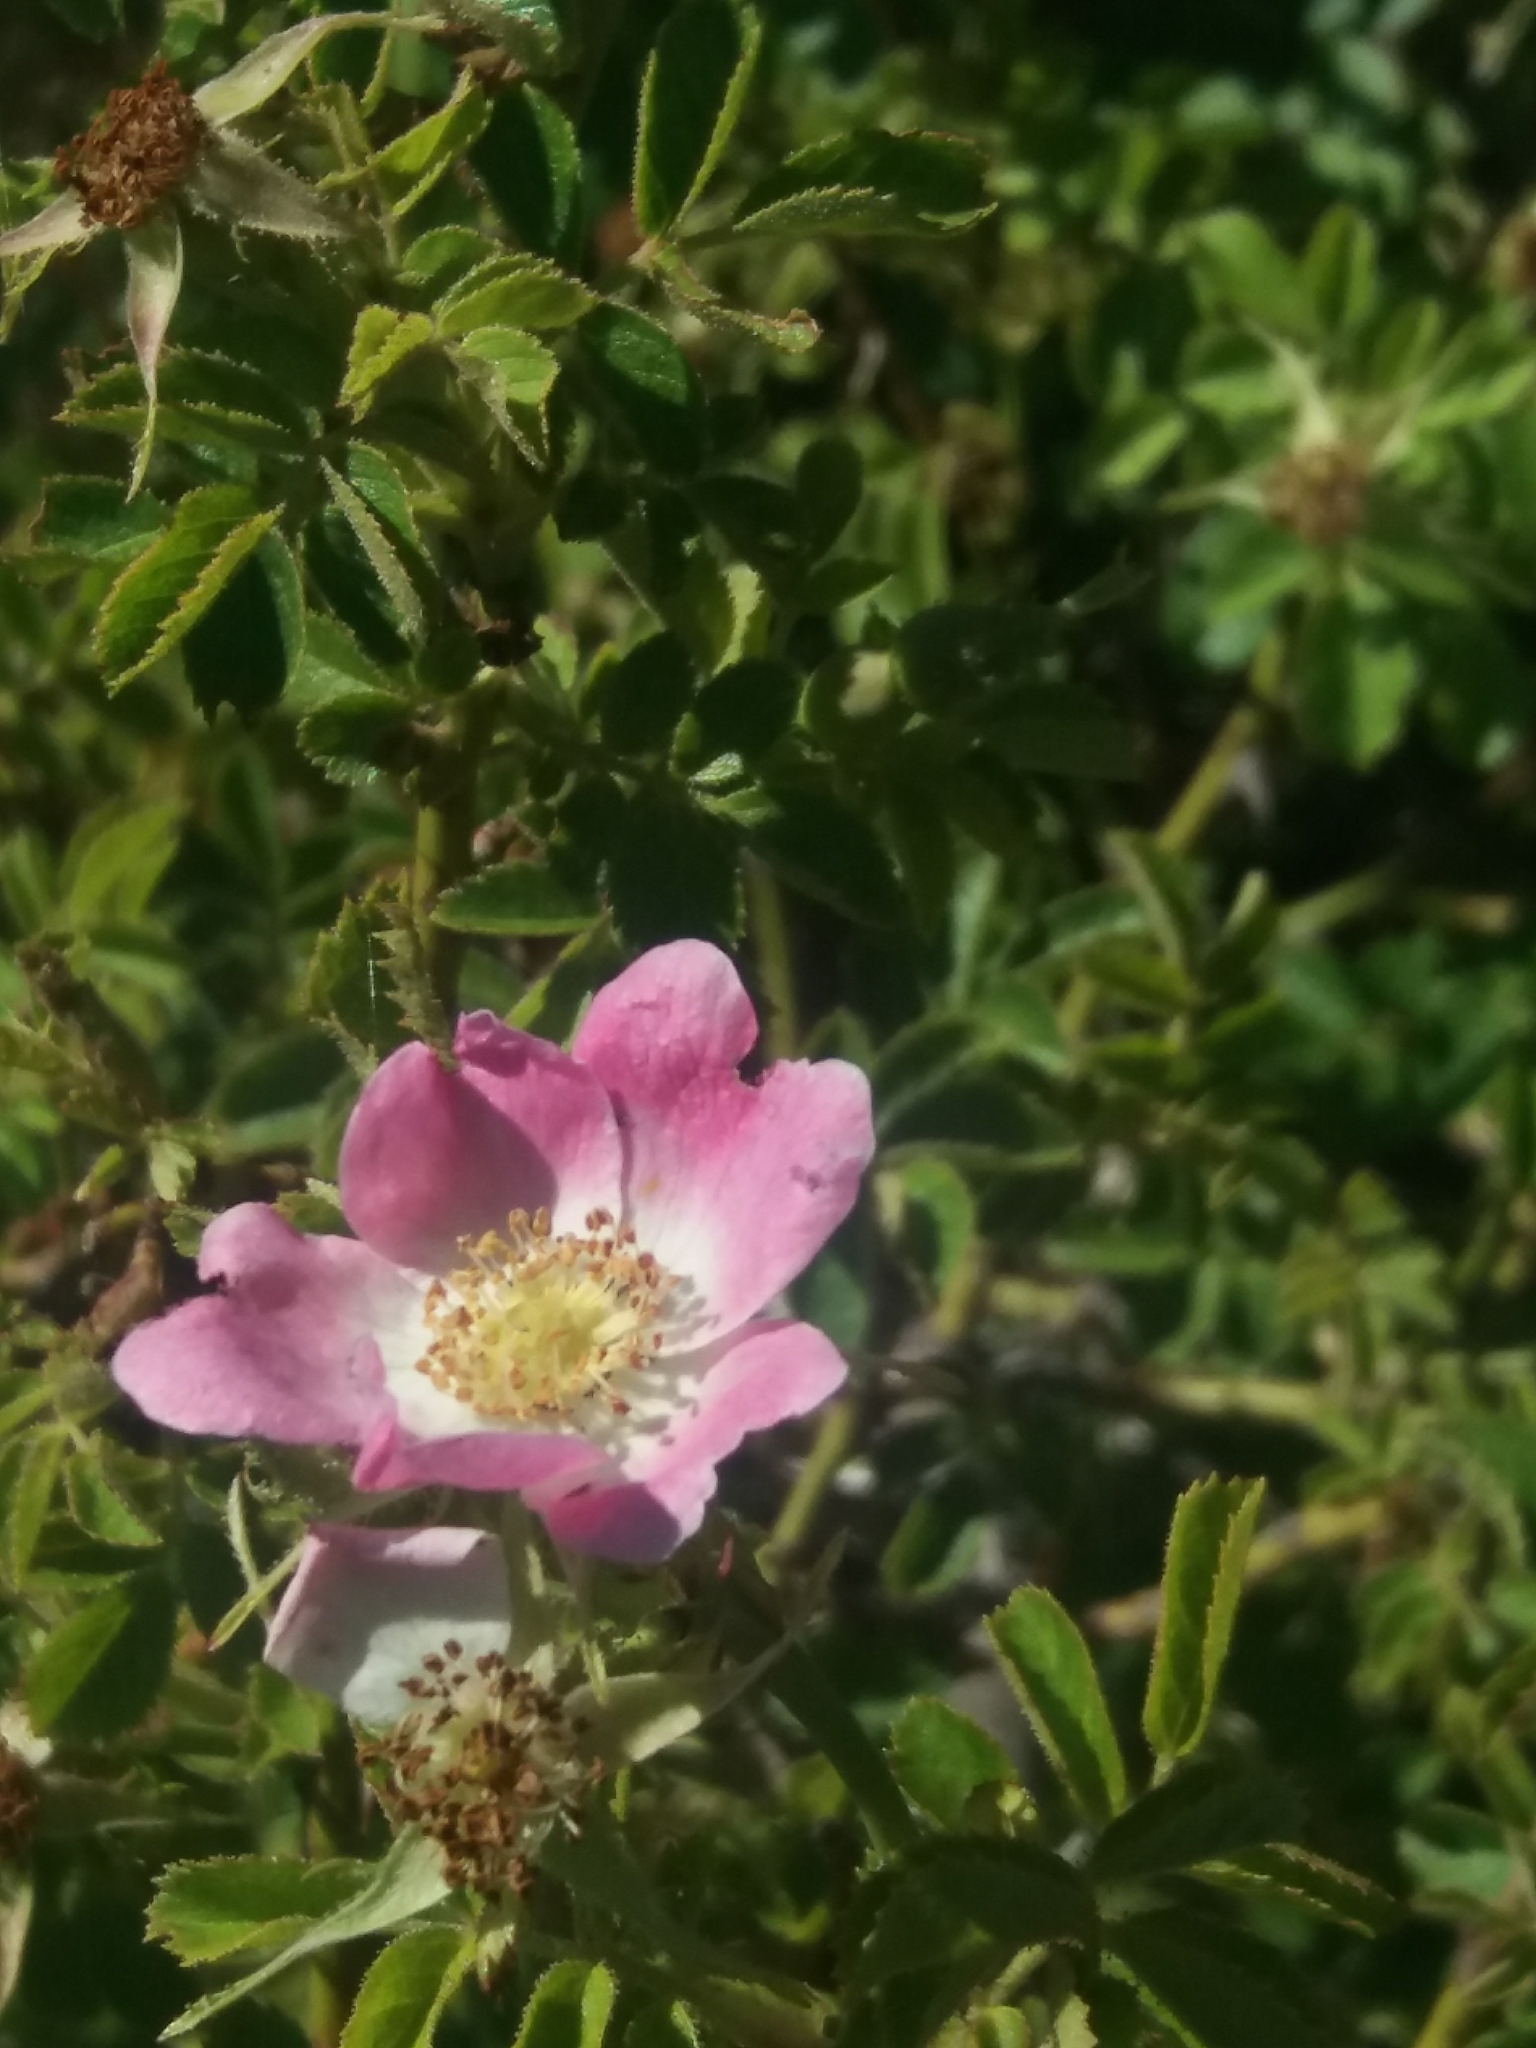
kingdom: Plantae
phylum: Tracheophyta
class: Magnoliopsida
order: Rosales
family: Rosaceae
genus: Rosa
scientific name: Rosa rubiginosa
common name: Sweet-briar
